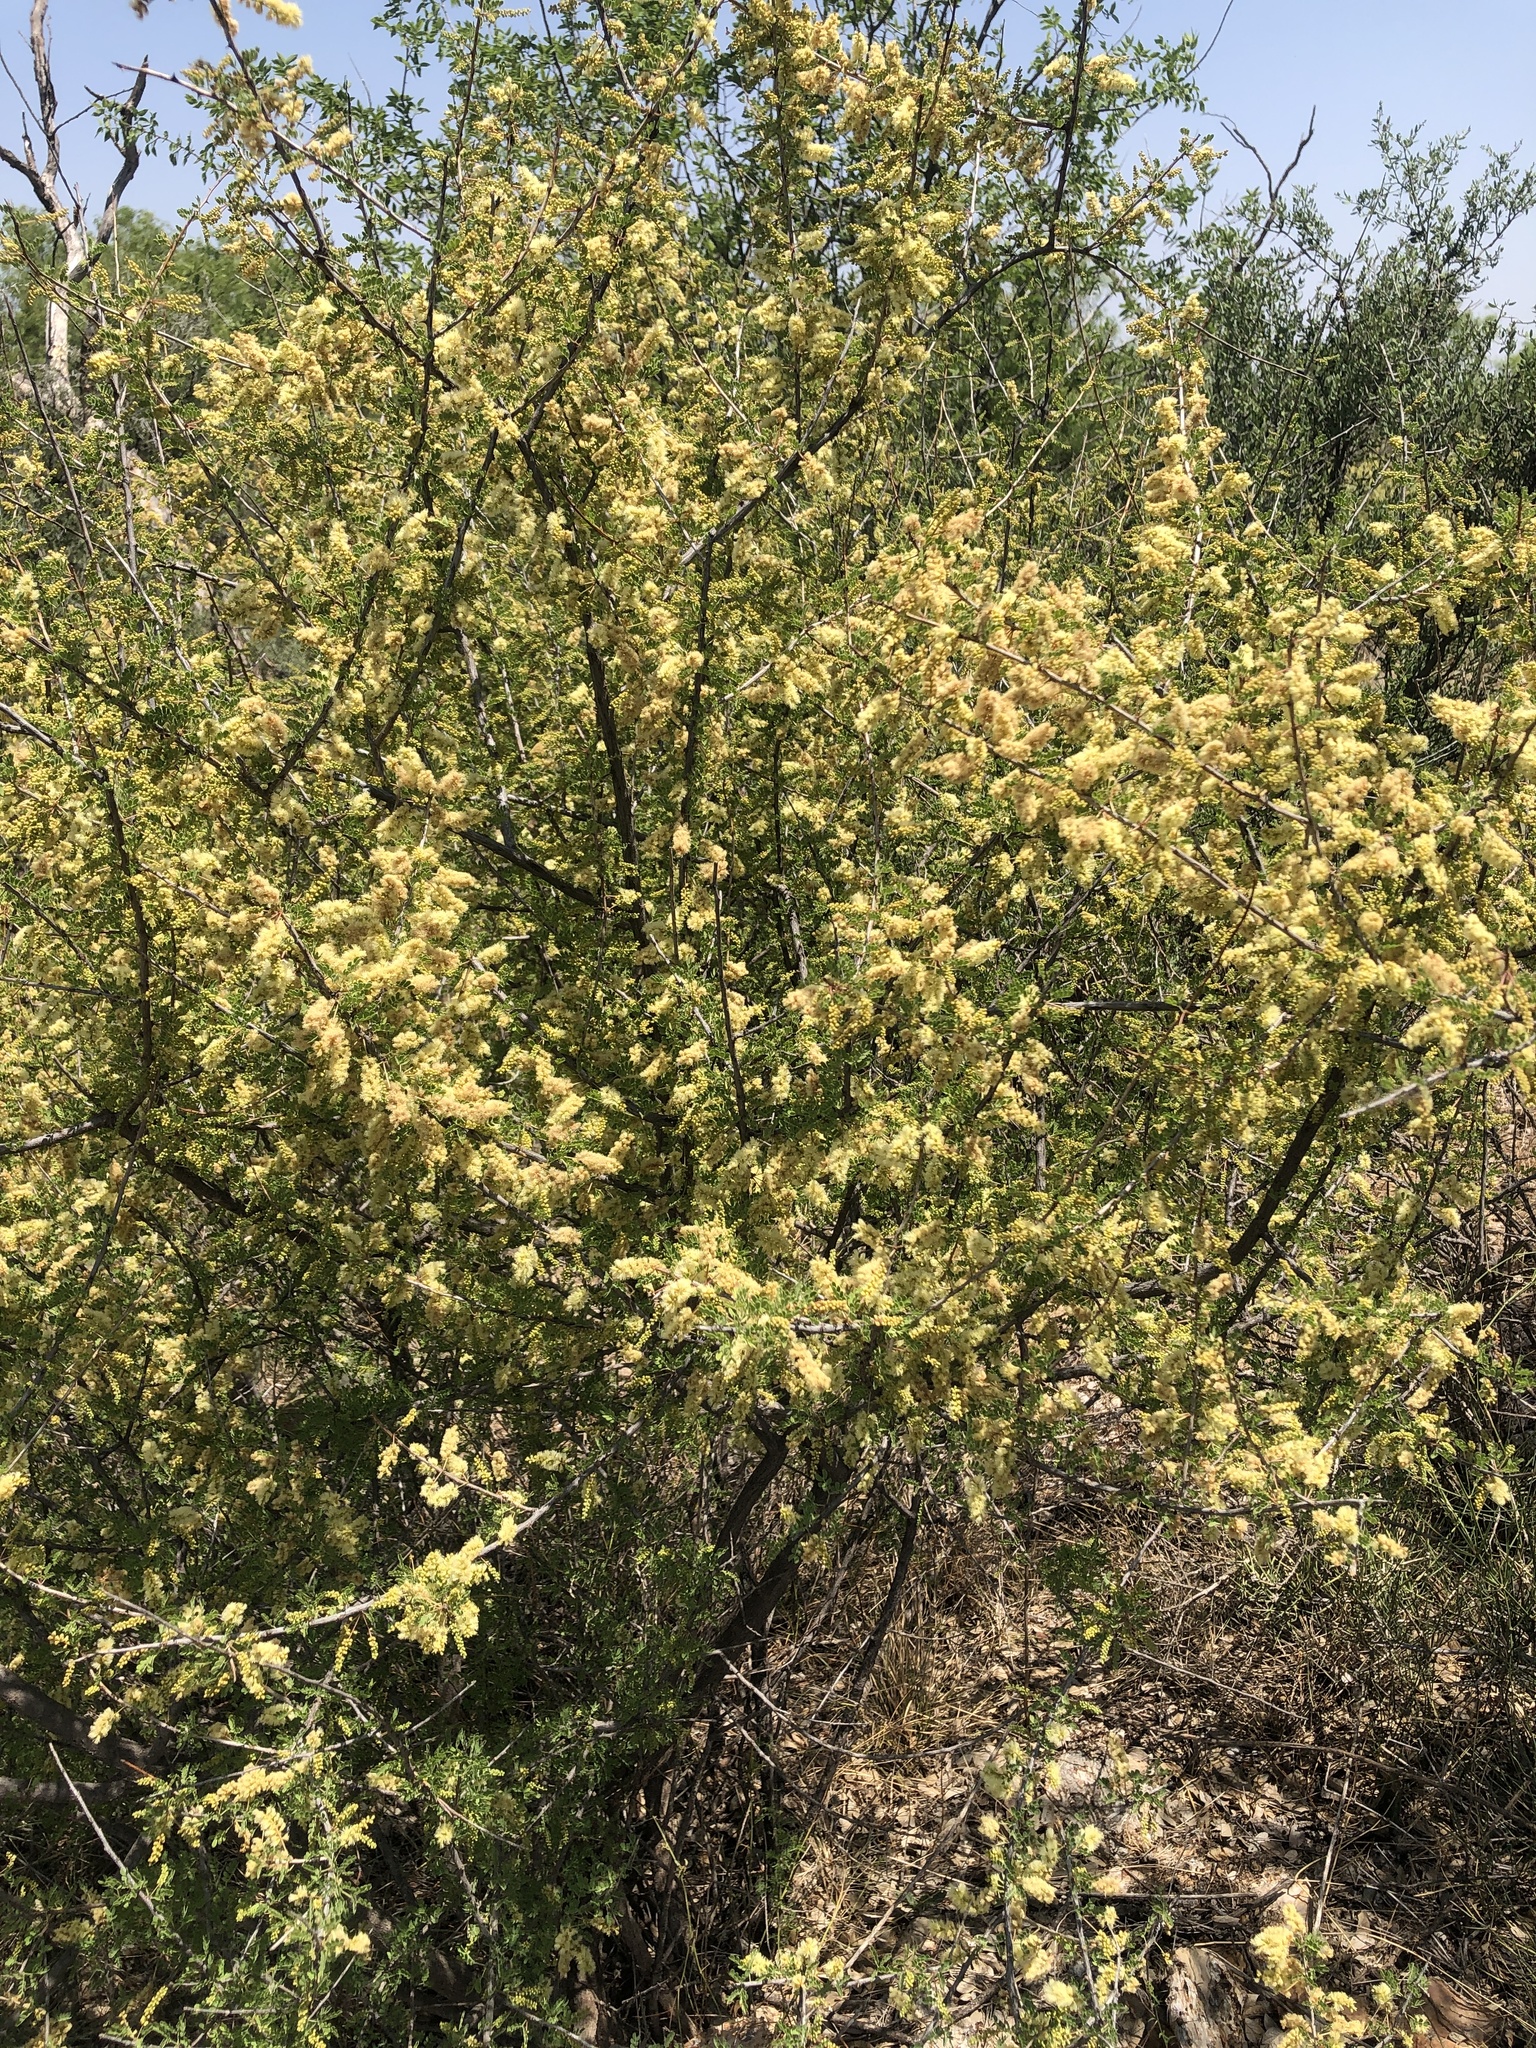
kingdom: Plantae
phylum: Tracheophyta
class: Magnoliopsida
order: Fabales
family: Fabaceae
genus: Senegalia
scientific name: Senegalia greggii
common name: Texas-mimosa
